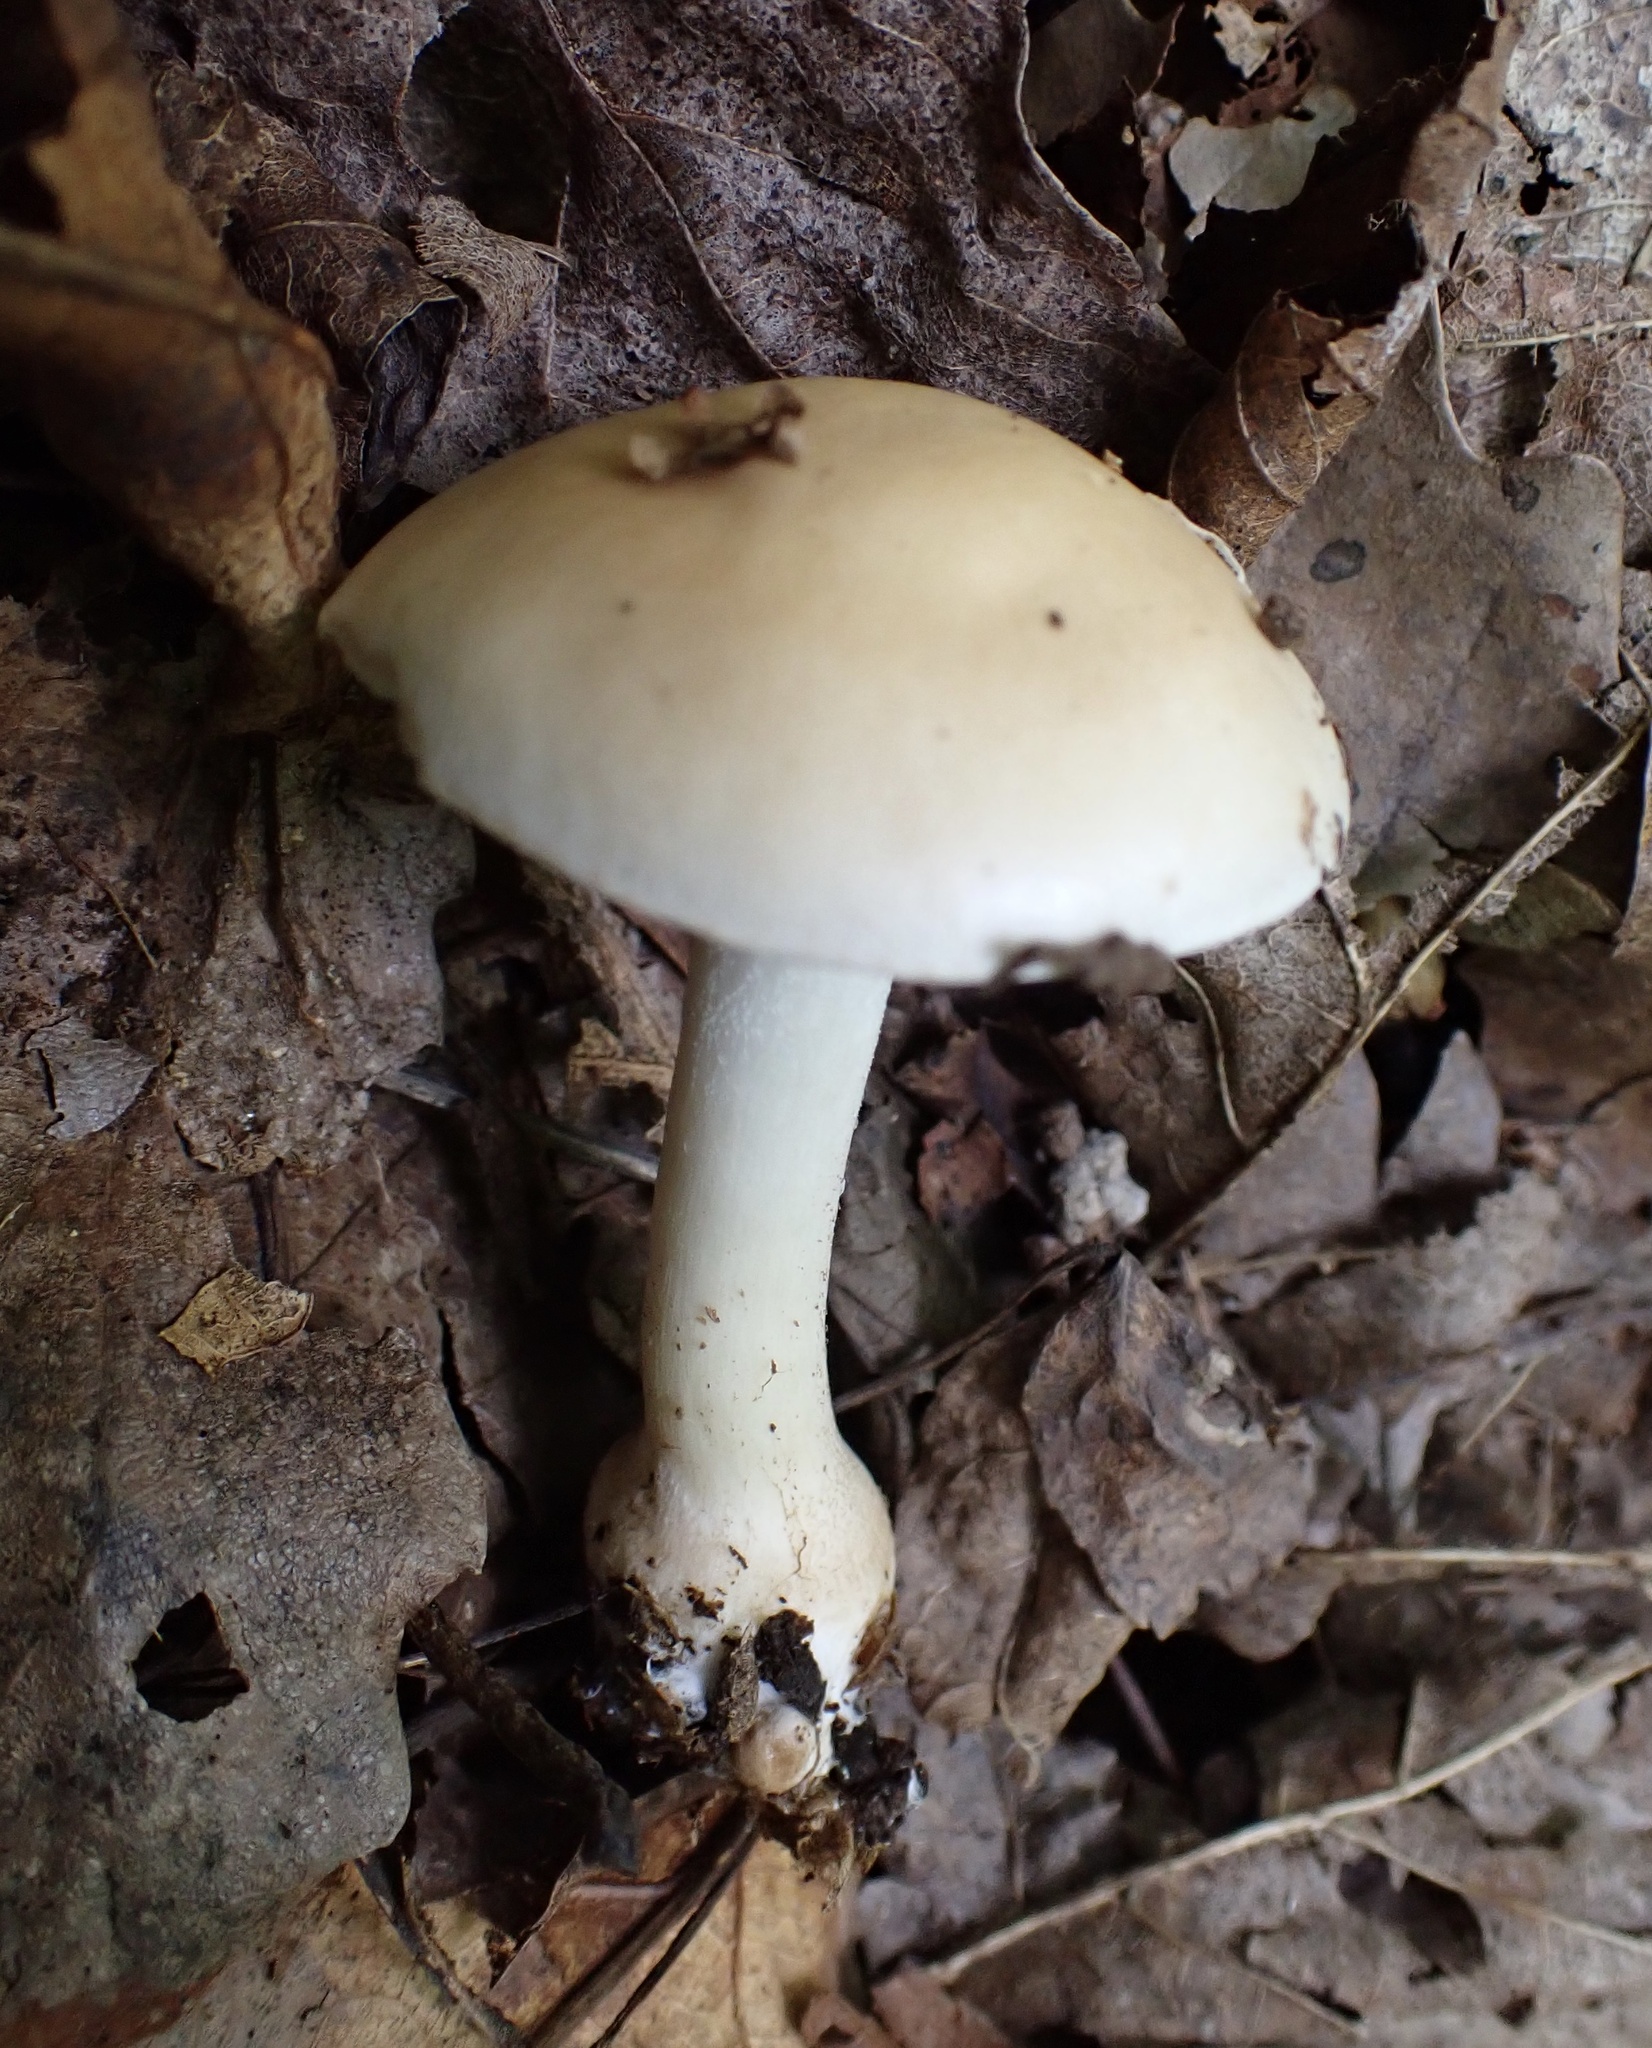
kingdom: Fungi
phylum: Basidiomycota
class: Agaricomycetes
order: Agaricales
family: Hymenogastraceae
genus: Hebeloma
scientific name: Hebeloma albidulum
